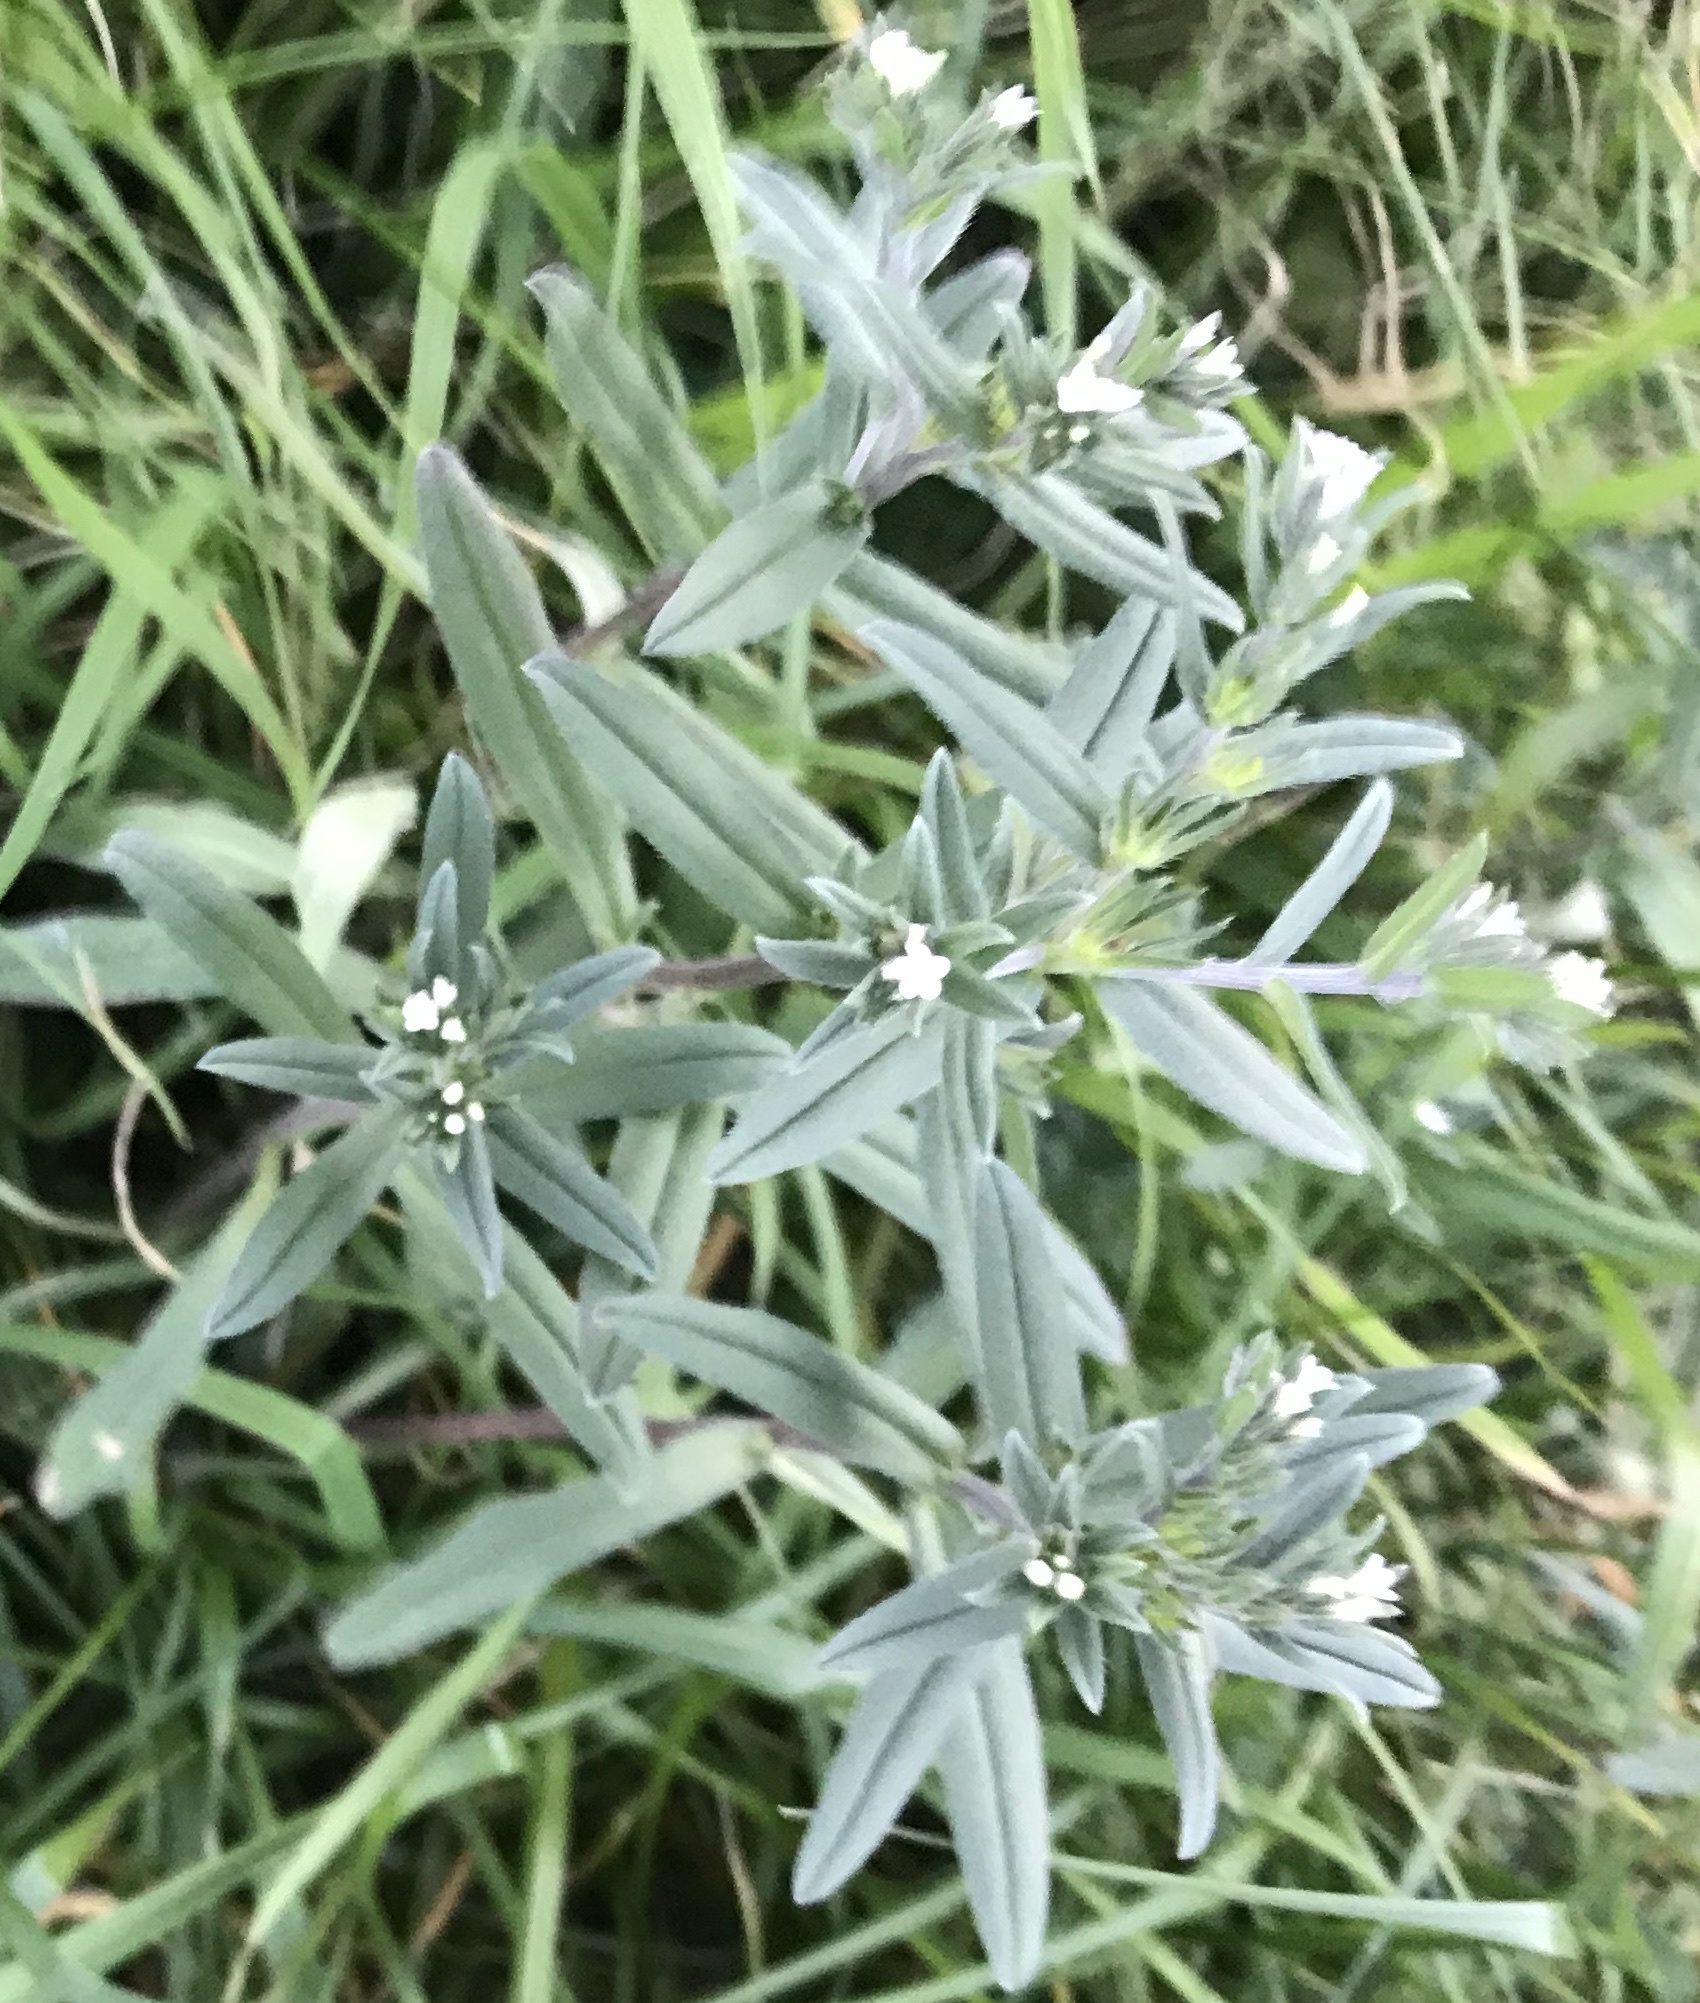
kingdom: Plantae
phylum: Tracheophyta
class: Magnoliopsida
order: Boraginales
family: Boraginaceae
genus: Buglossoides
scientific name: Buglossoides arvensis
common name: Corn gromwell
